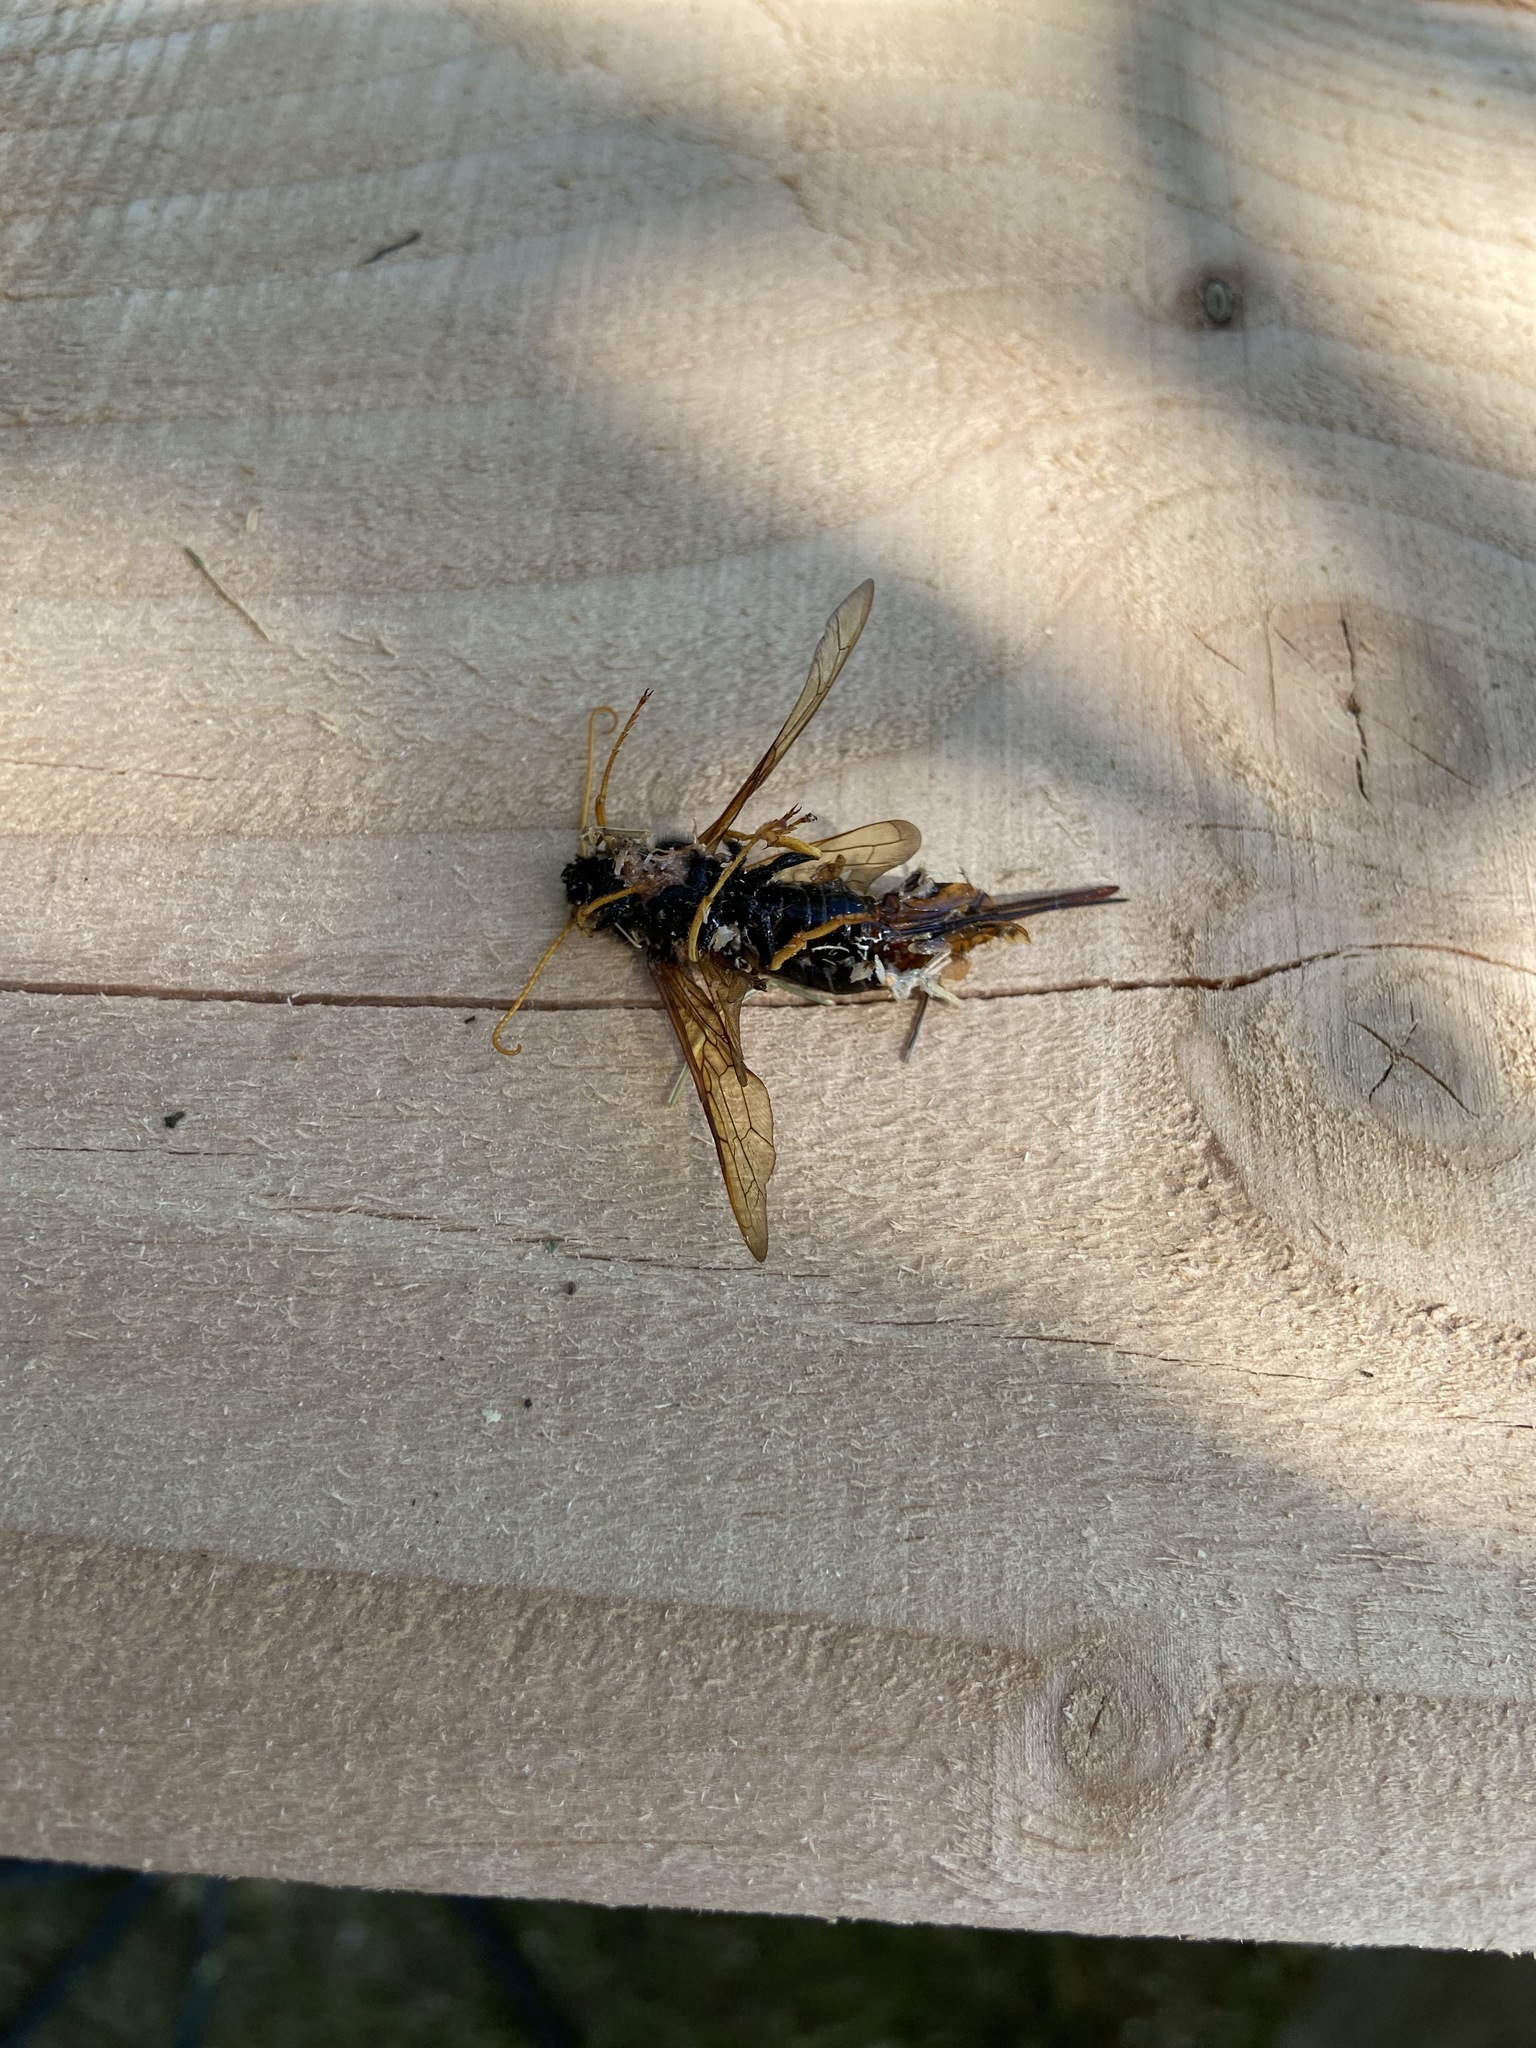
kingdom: Animalia
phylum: Arthropoda
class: Insecta
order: Hymenoptera
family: Siricidae
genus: Urocerus
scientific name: Urocerus gigas
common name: Giant woodwasp
